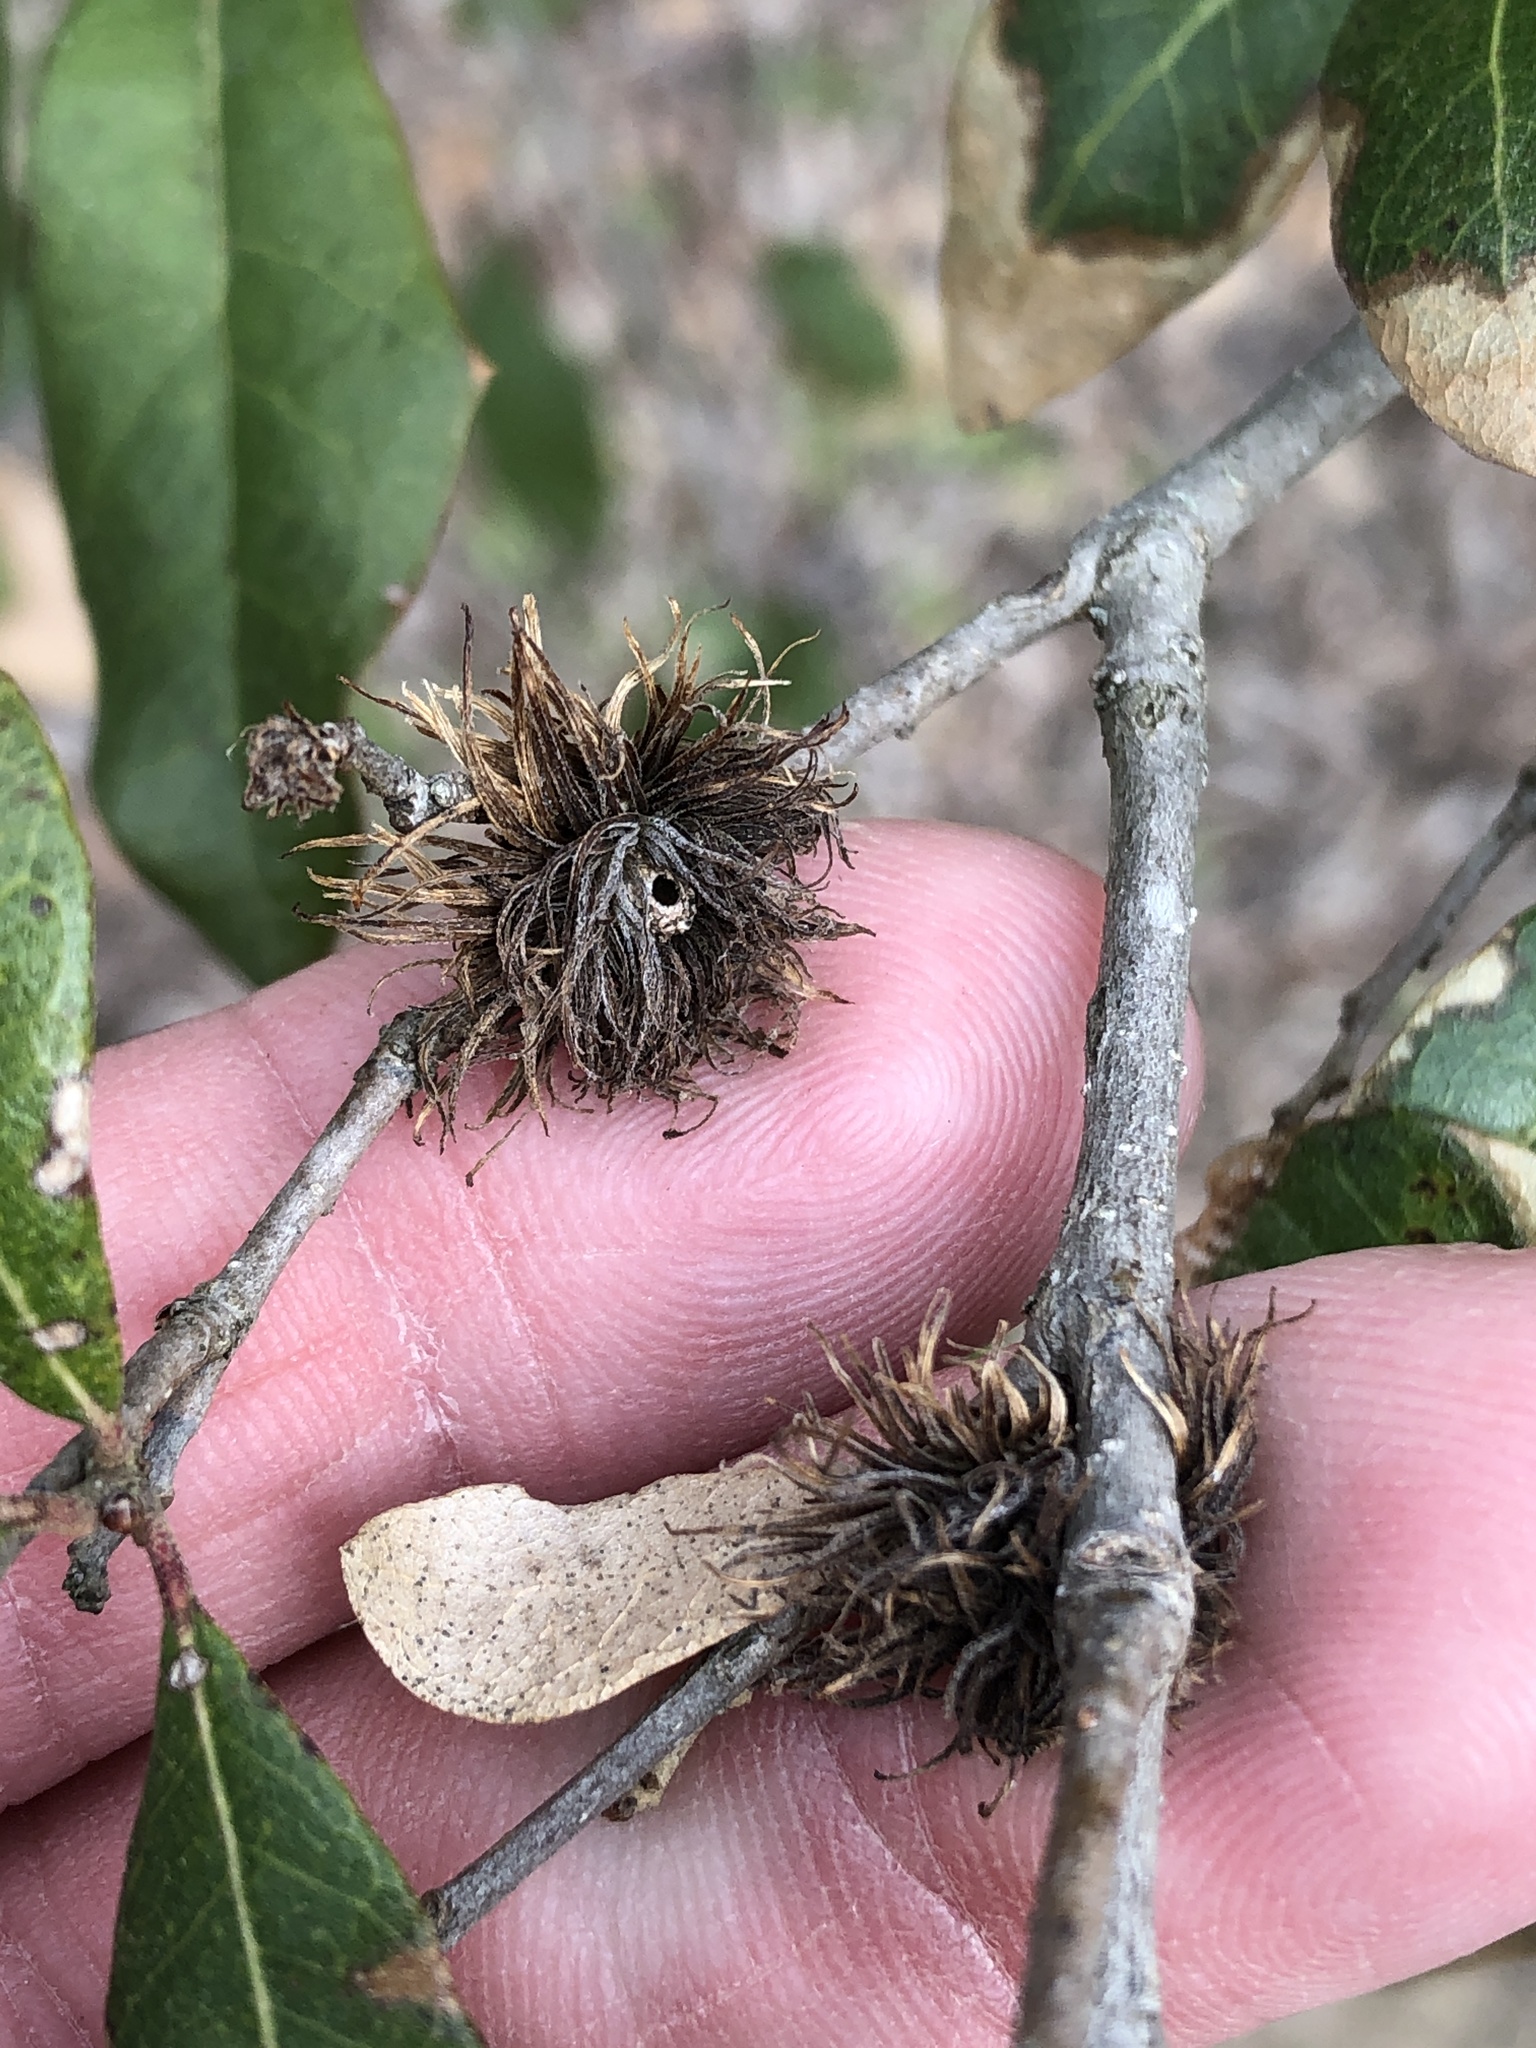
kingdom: Animalia
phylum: Arthropoda
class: Insecta
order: Hymenoptera
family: Cynipidae
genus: Andricus
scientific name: Andricus quercusfoliatus
